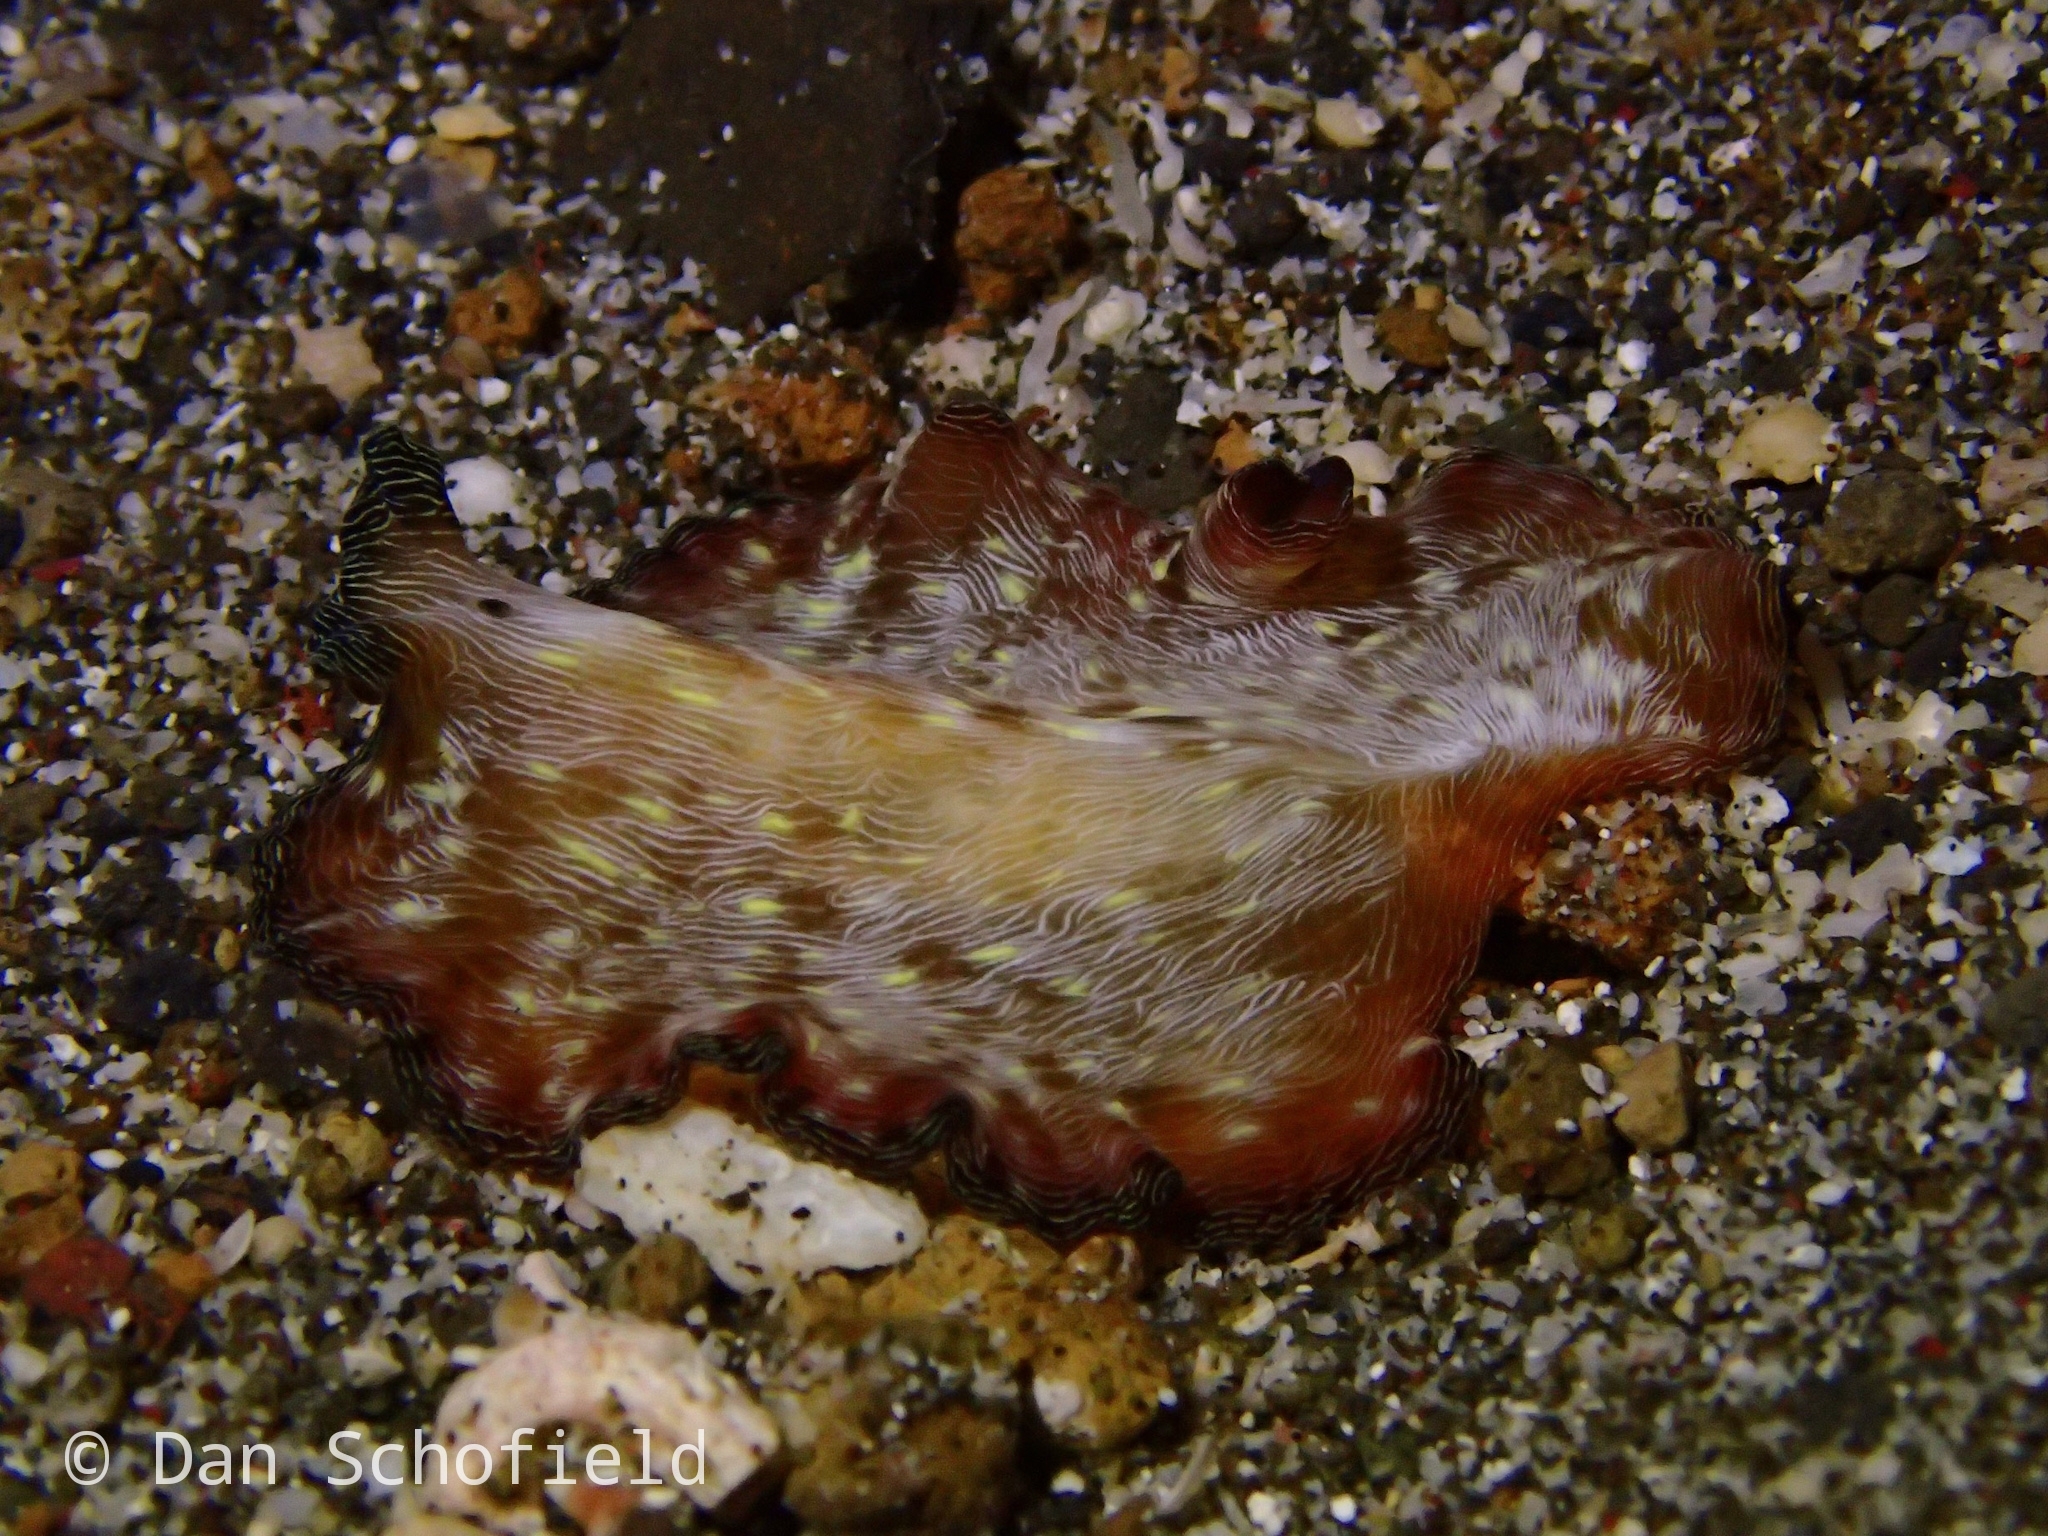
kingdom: Animalia
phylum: Platyhelminthes
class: Turbellaria
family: Pseudocerotidae
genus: Pseudobiceros
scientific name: Pseudobiceros fulgor
